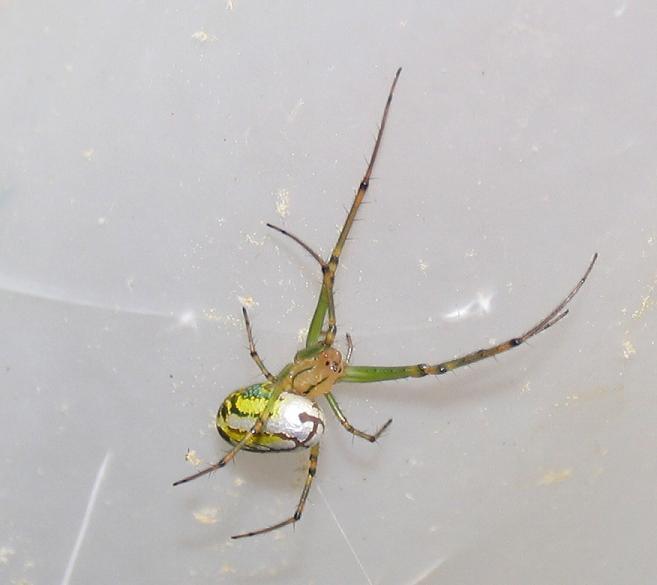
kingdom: Animalia
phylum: Arthropoda
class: Arachnida
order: Araneae
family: Tetragnathidae
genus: Leucauge
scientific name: Leucauge venusta
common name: Longjawed orb weavers
